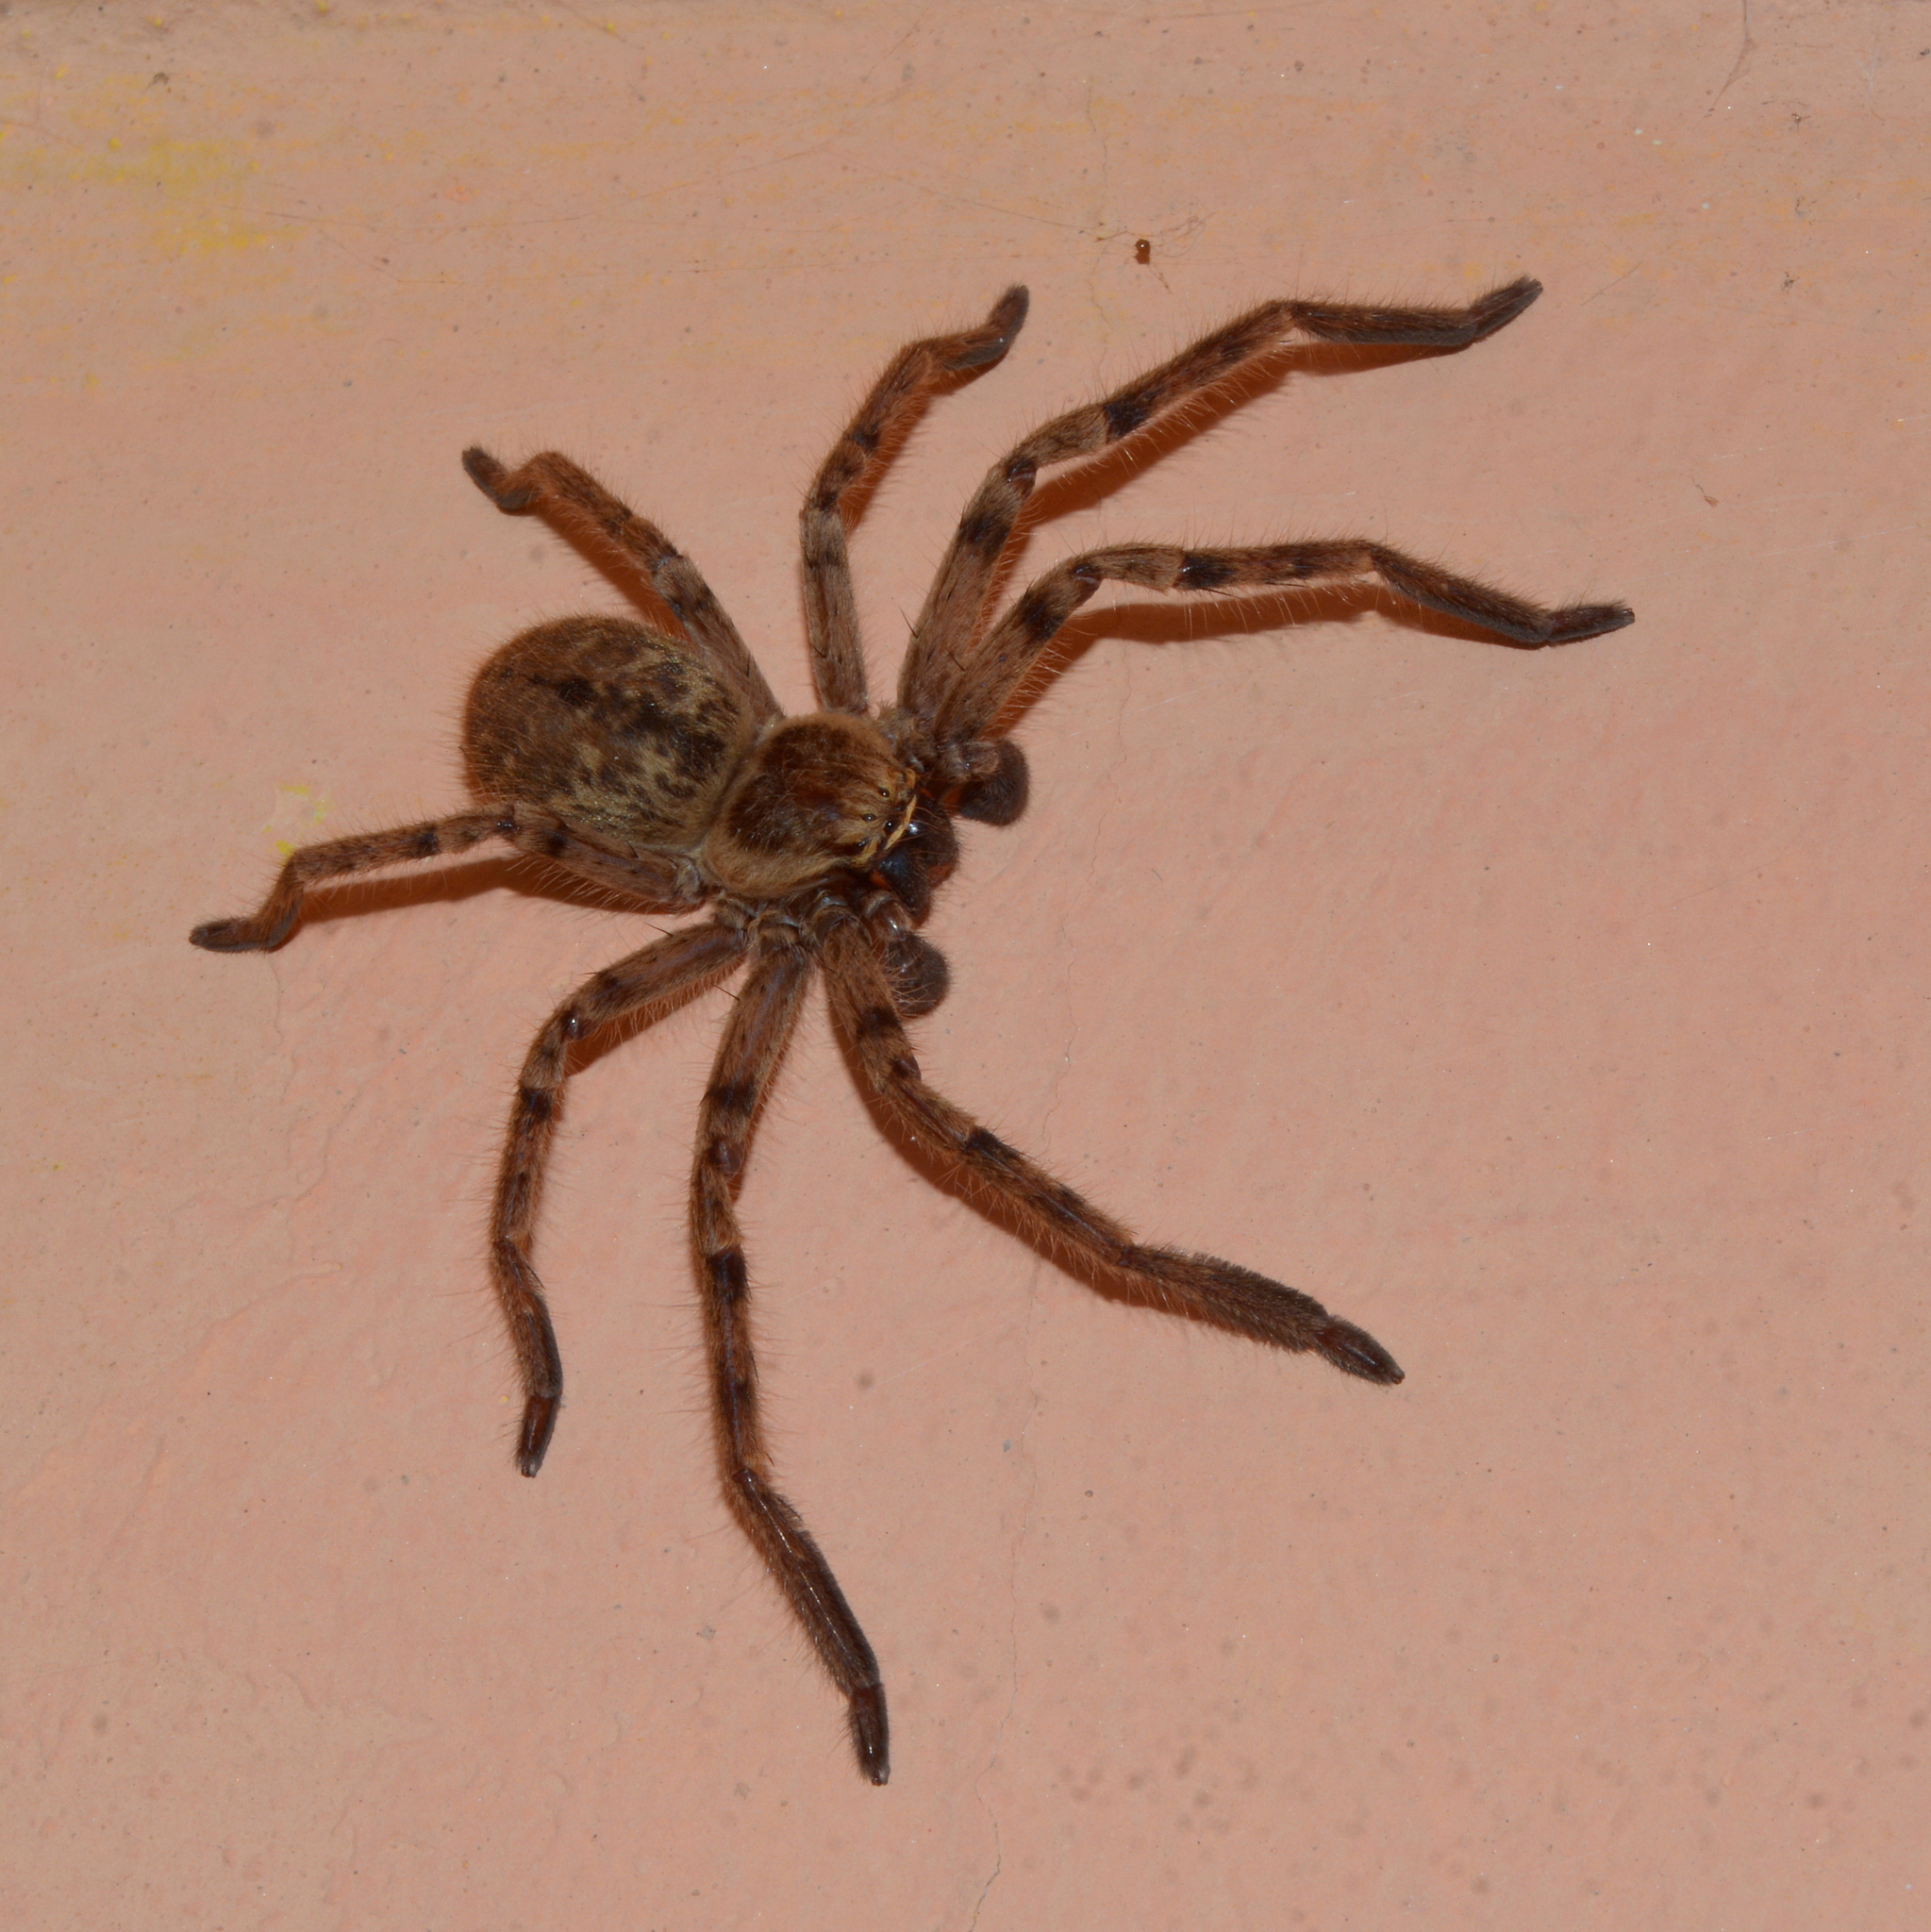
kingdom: Animalia
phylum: Arthropoda
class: Arachnida
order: Araneae
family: Sparassidae
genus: Polybetes
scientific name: Polybetes pythagoricus
